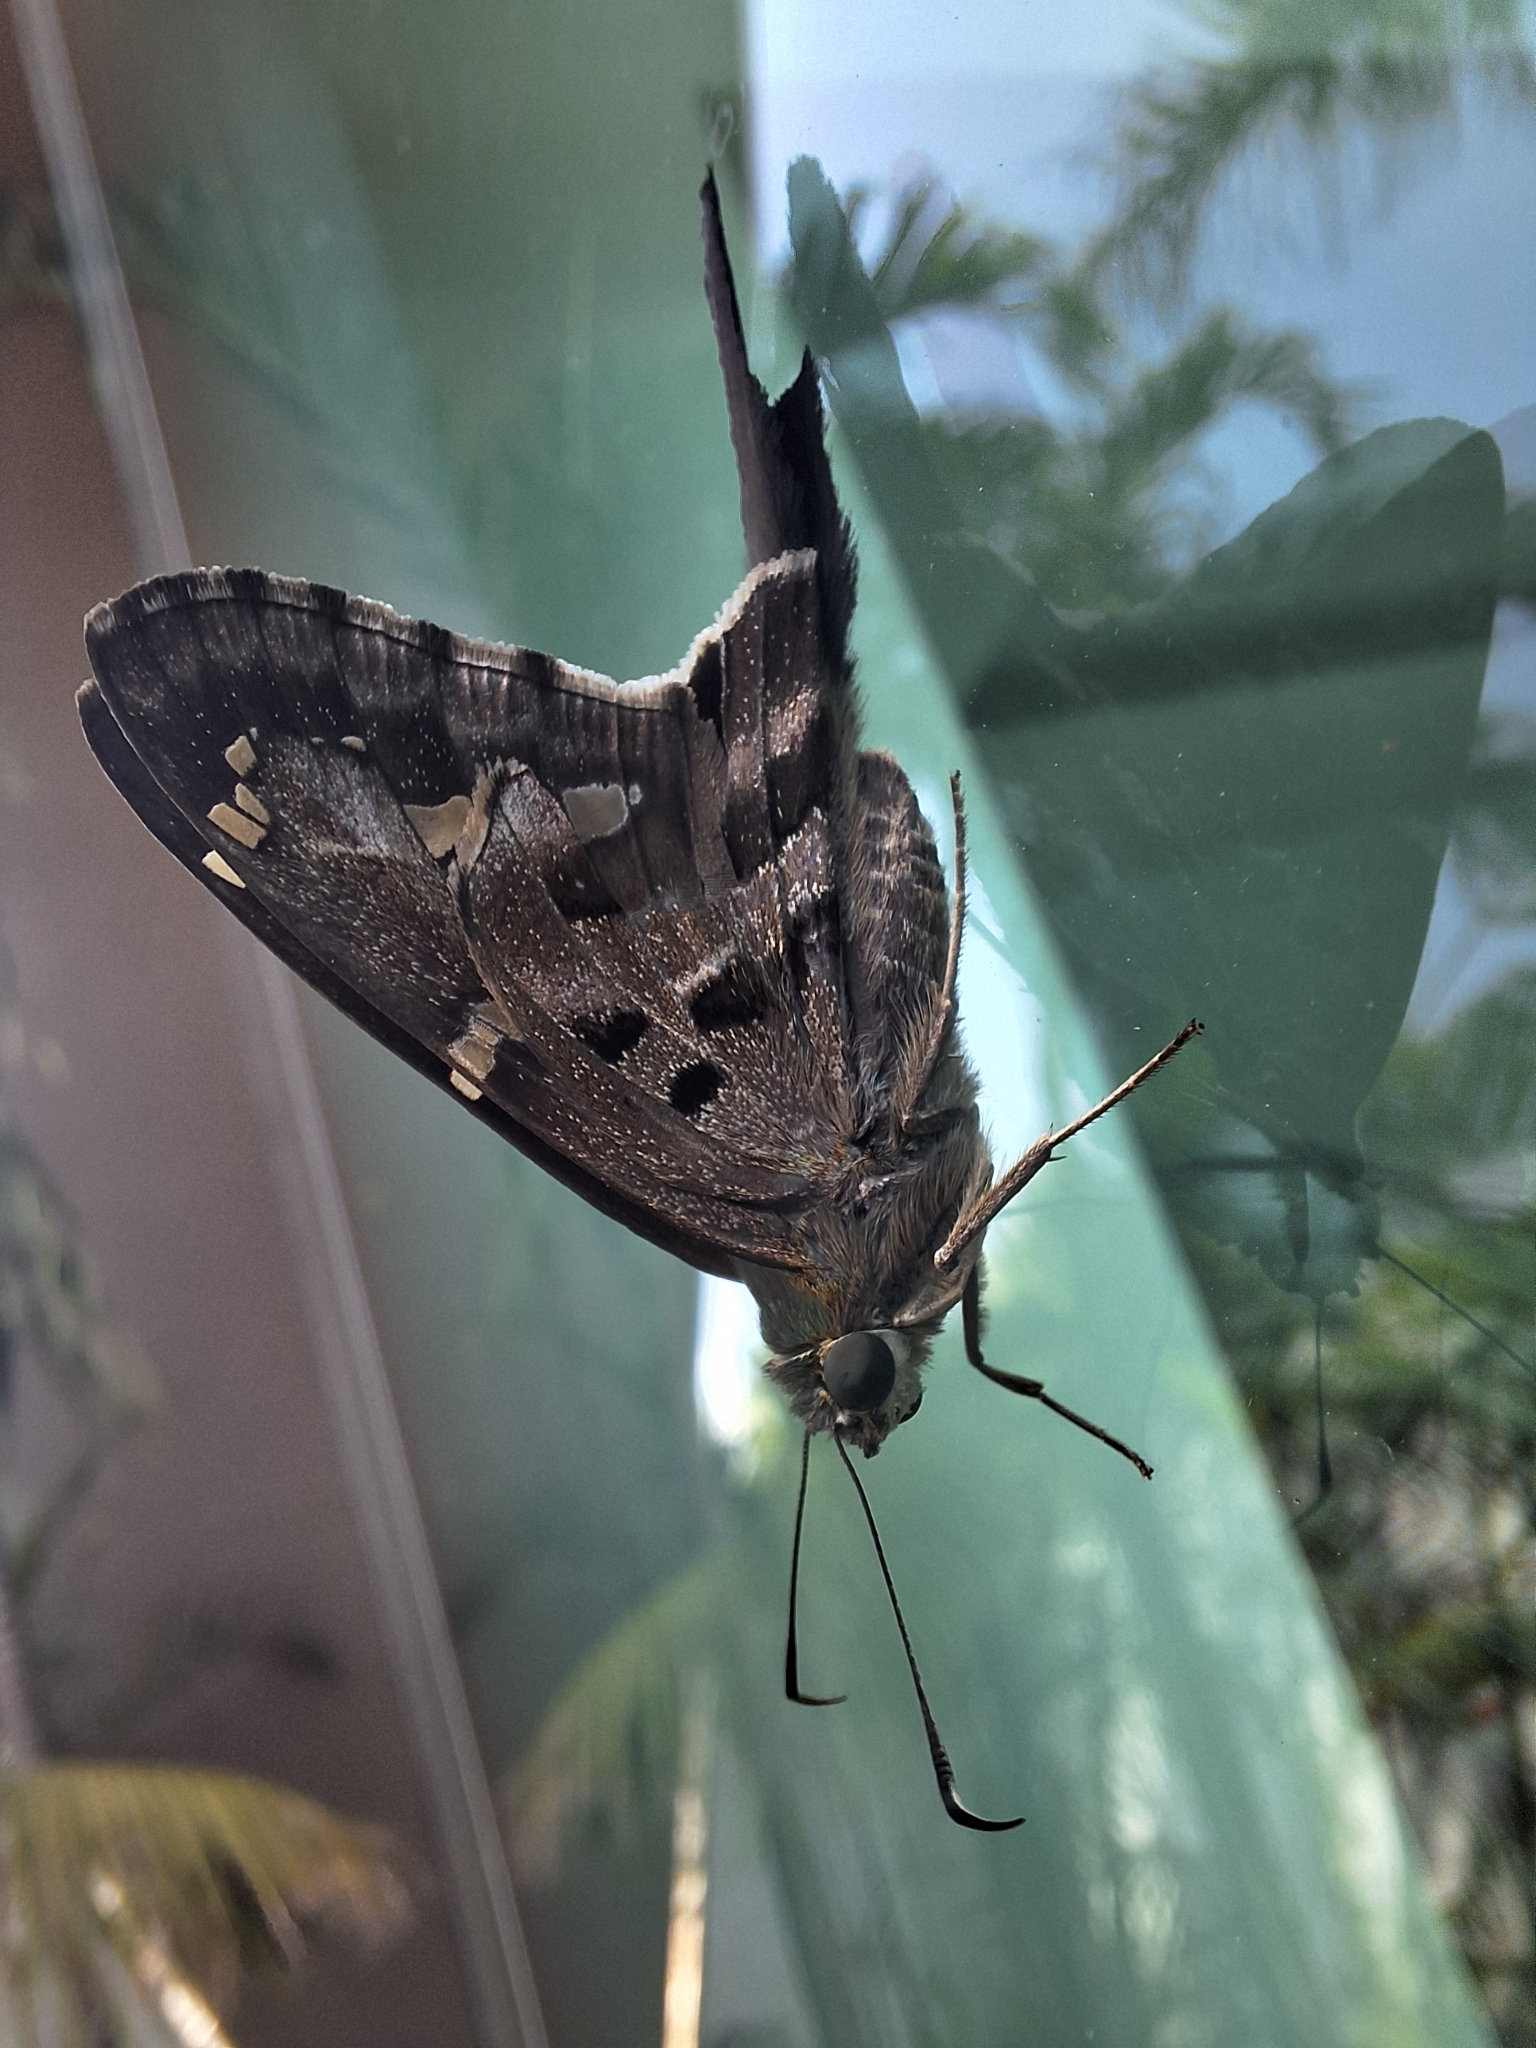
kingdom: Animalia
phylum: Arthropoda
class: Insecta
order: Lepidoptera
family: Hesperiidae
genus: Urbanus
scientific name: Urbanus proteus
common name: Long-tailed skipper
